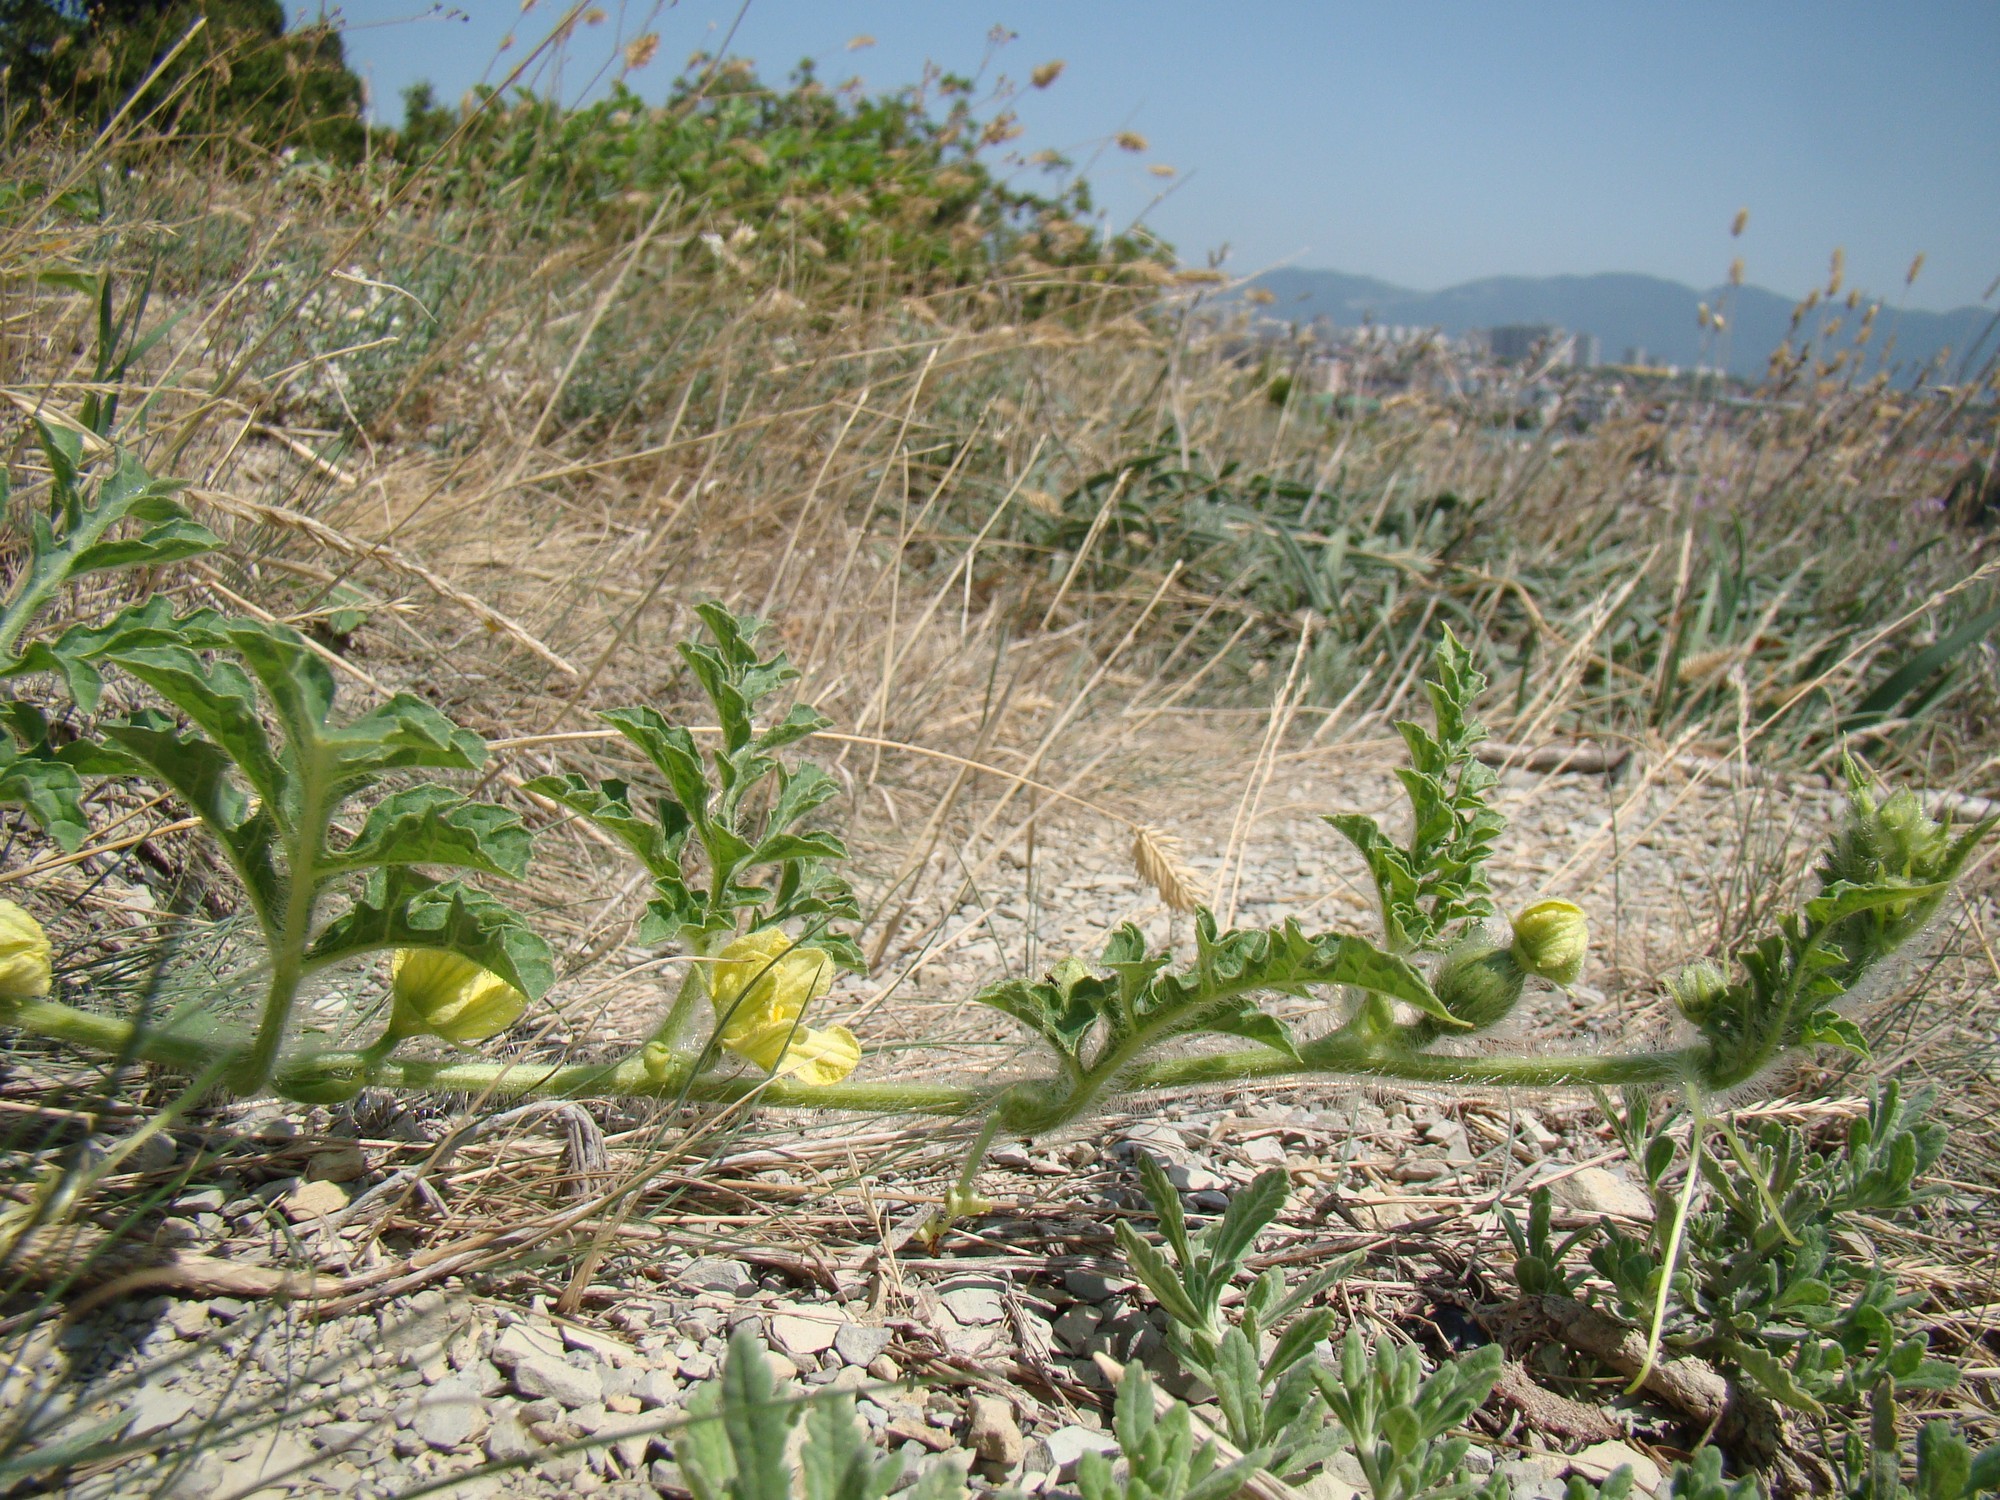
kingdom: Plantae
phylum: Tracheophyta
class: Magnoliopsida
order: Cucurbitales
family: Cucurbitaceae
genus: Citrullus
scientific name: Citrullus lanatus
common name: Watermelon
